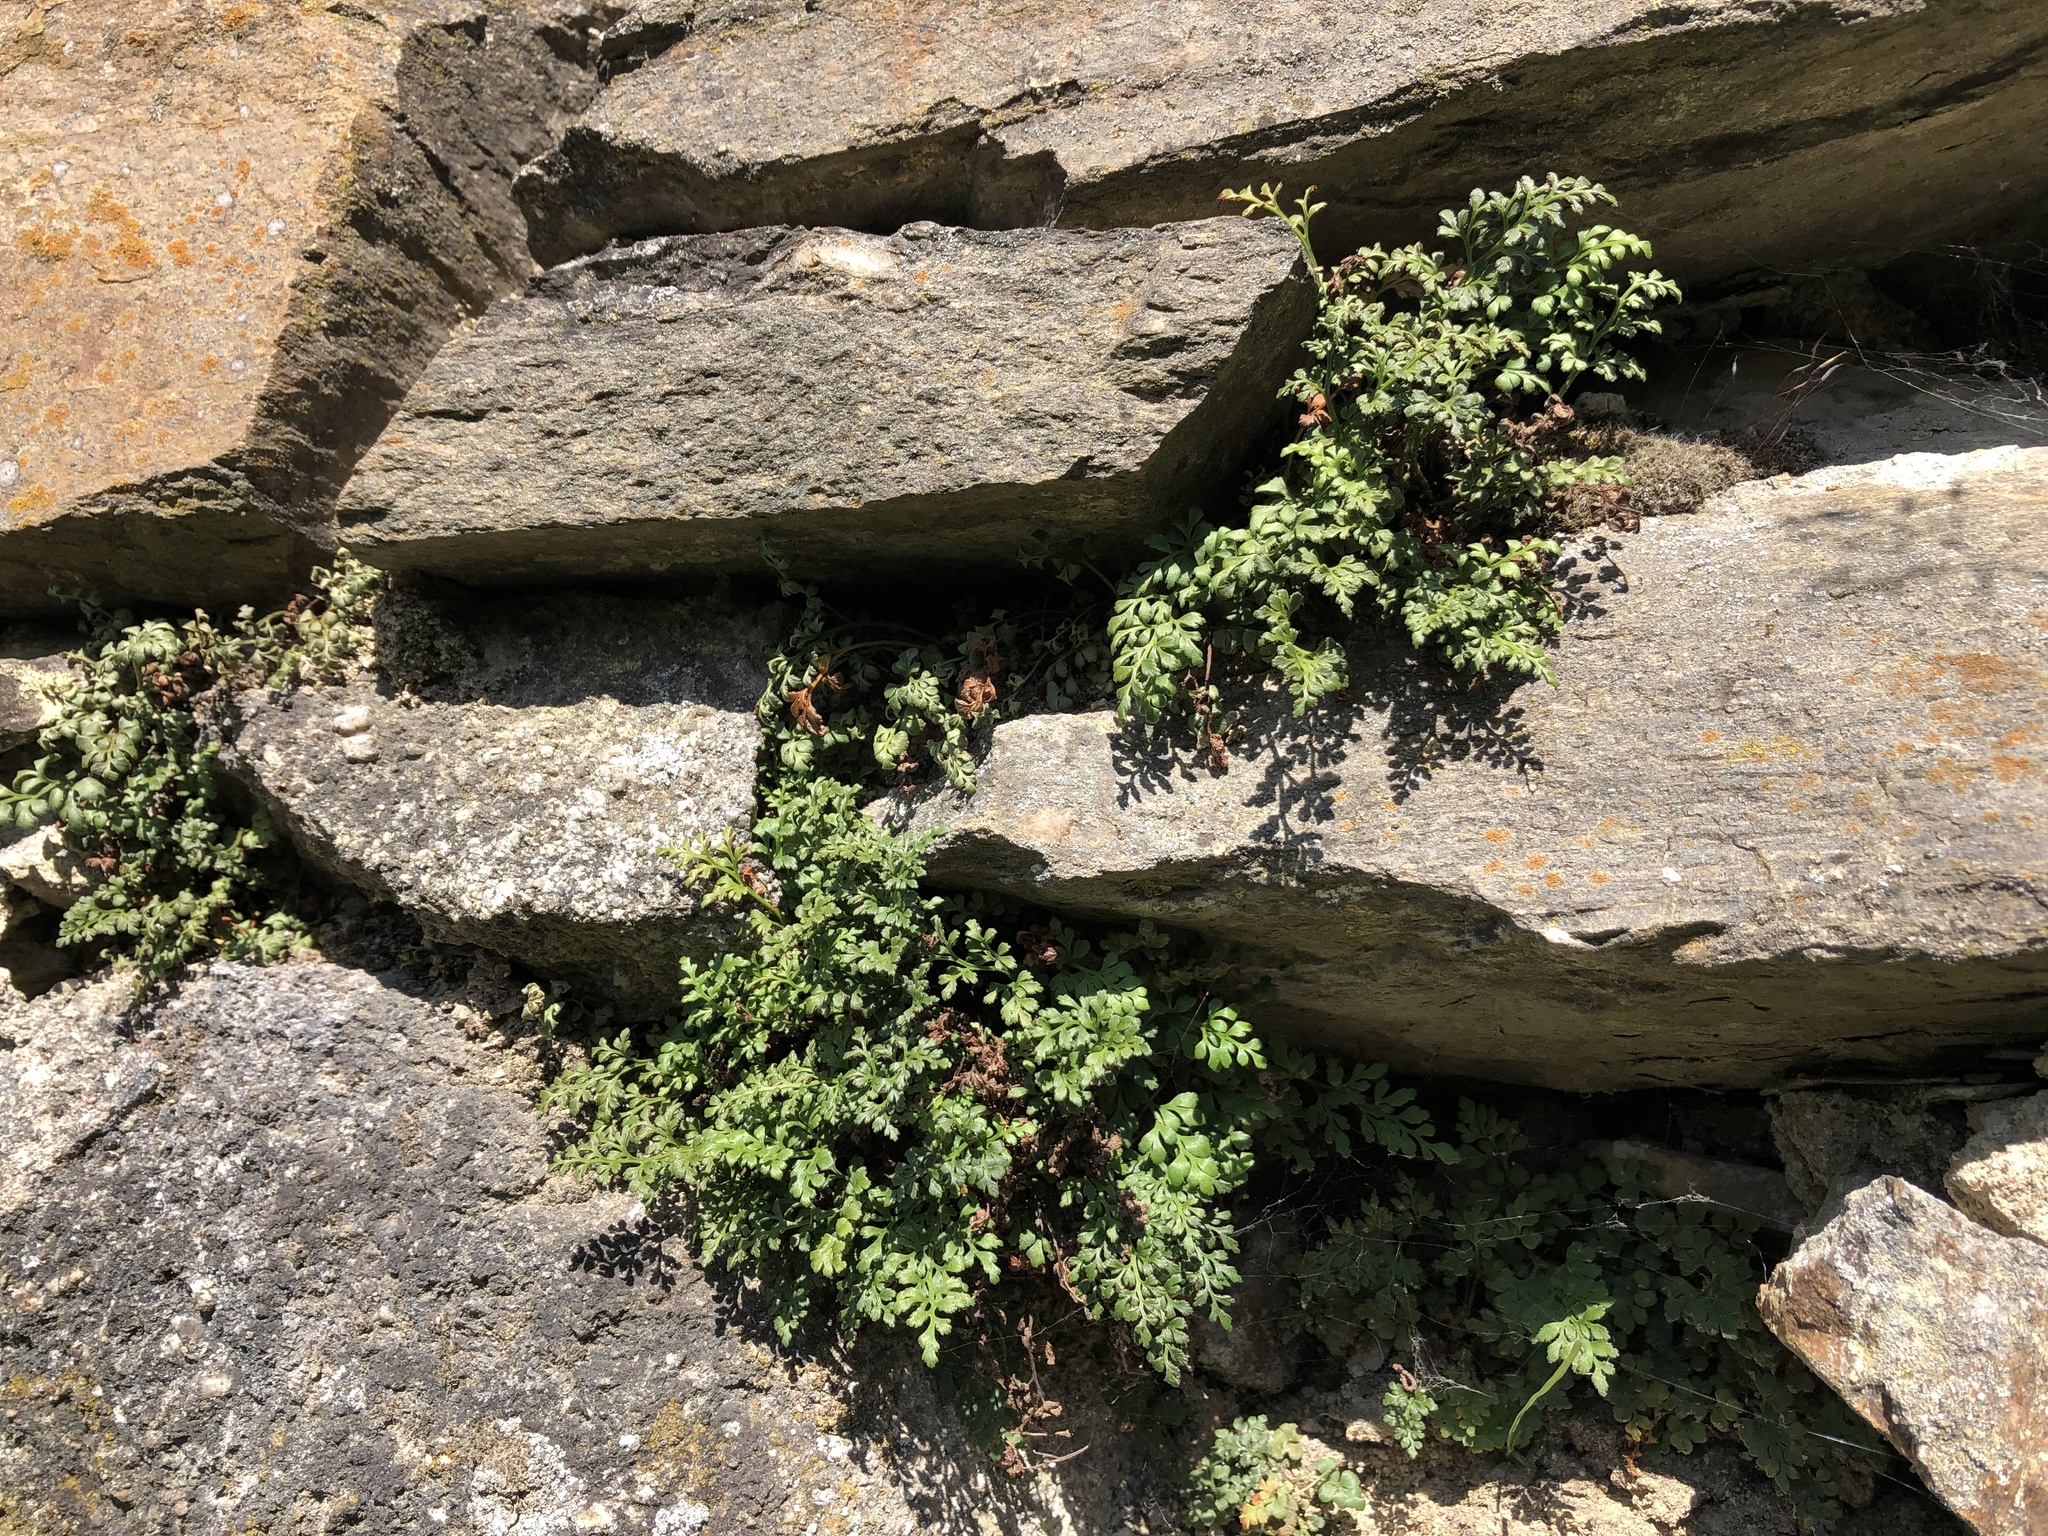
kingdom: Plantae
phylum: Tracheophyta
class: Polypodiopsida
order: Polypodiales
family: Aspleniaceae
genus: Asplenium
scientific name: Asplenium ruta-muraria
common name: Wall-rue
